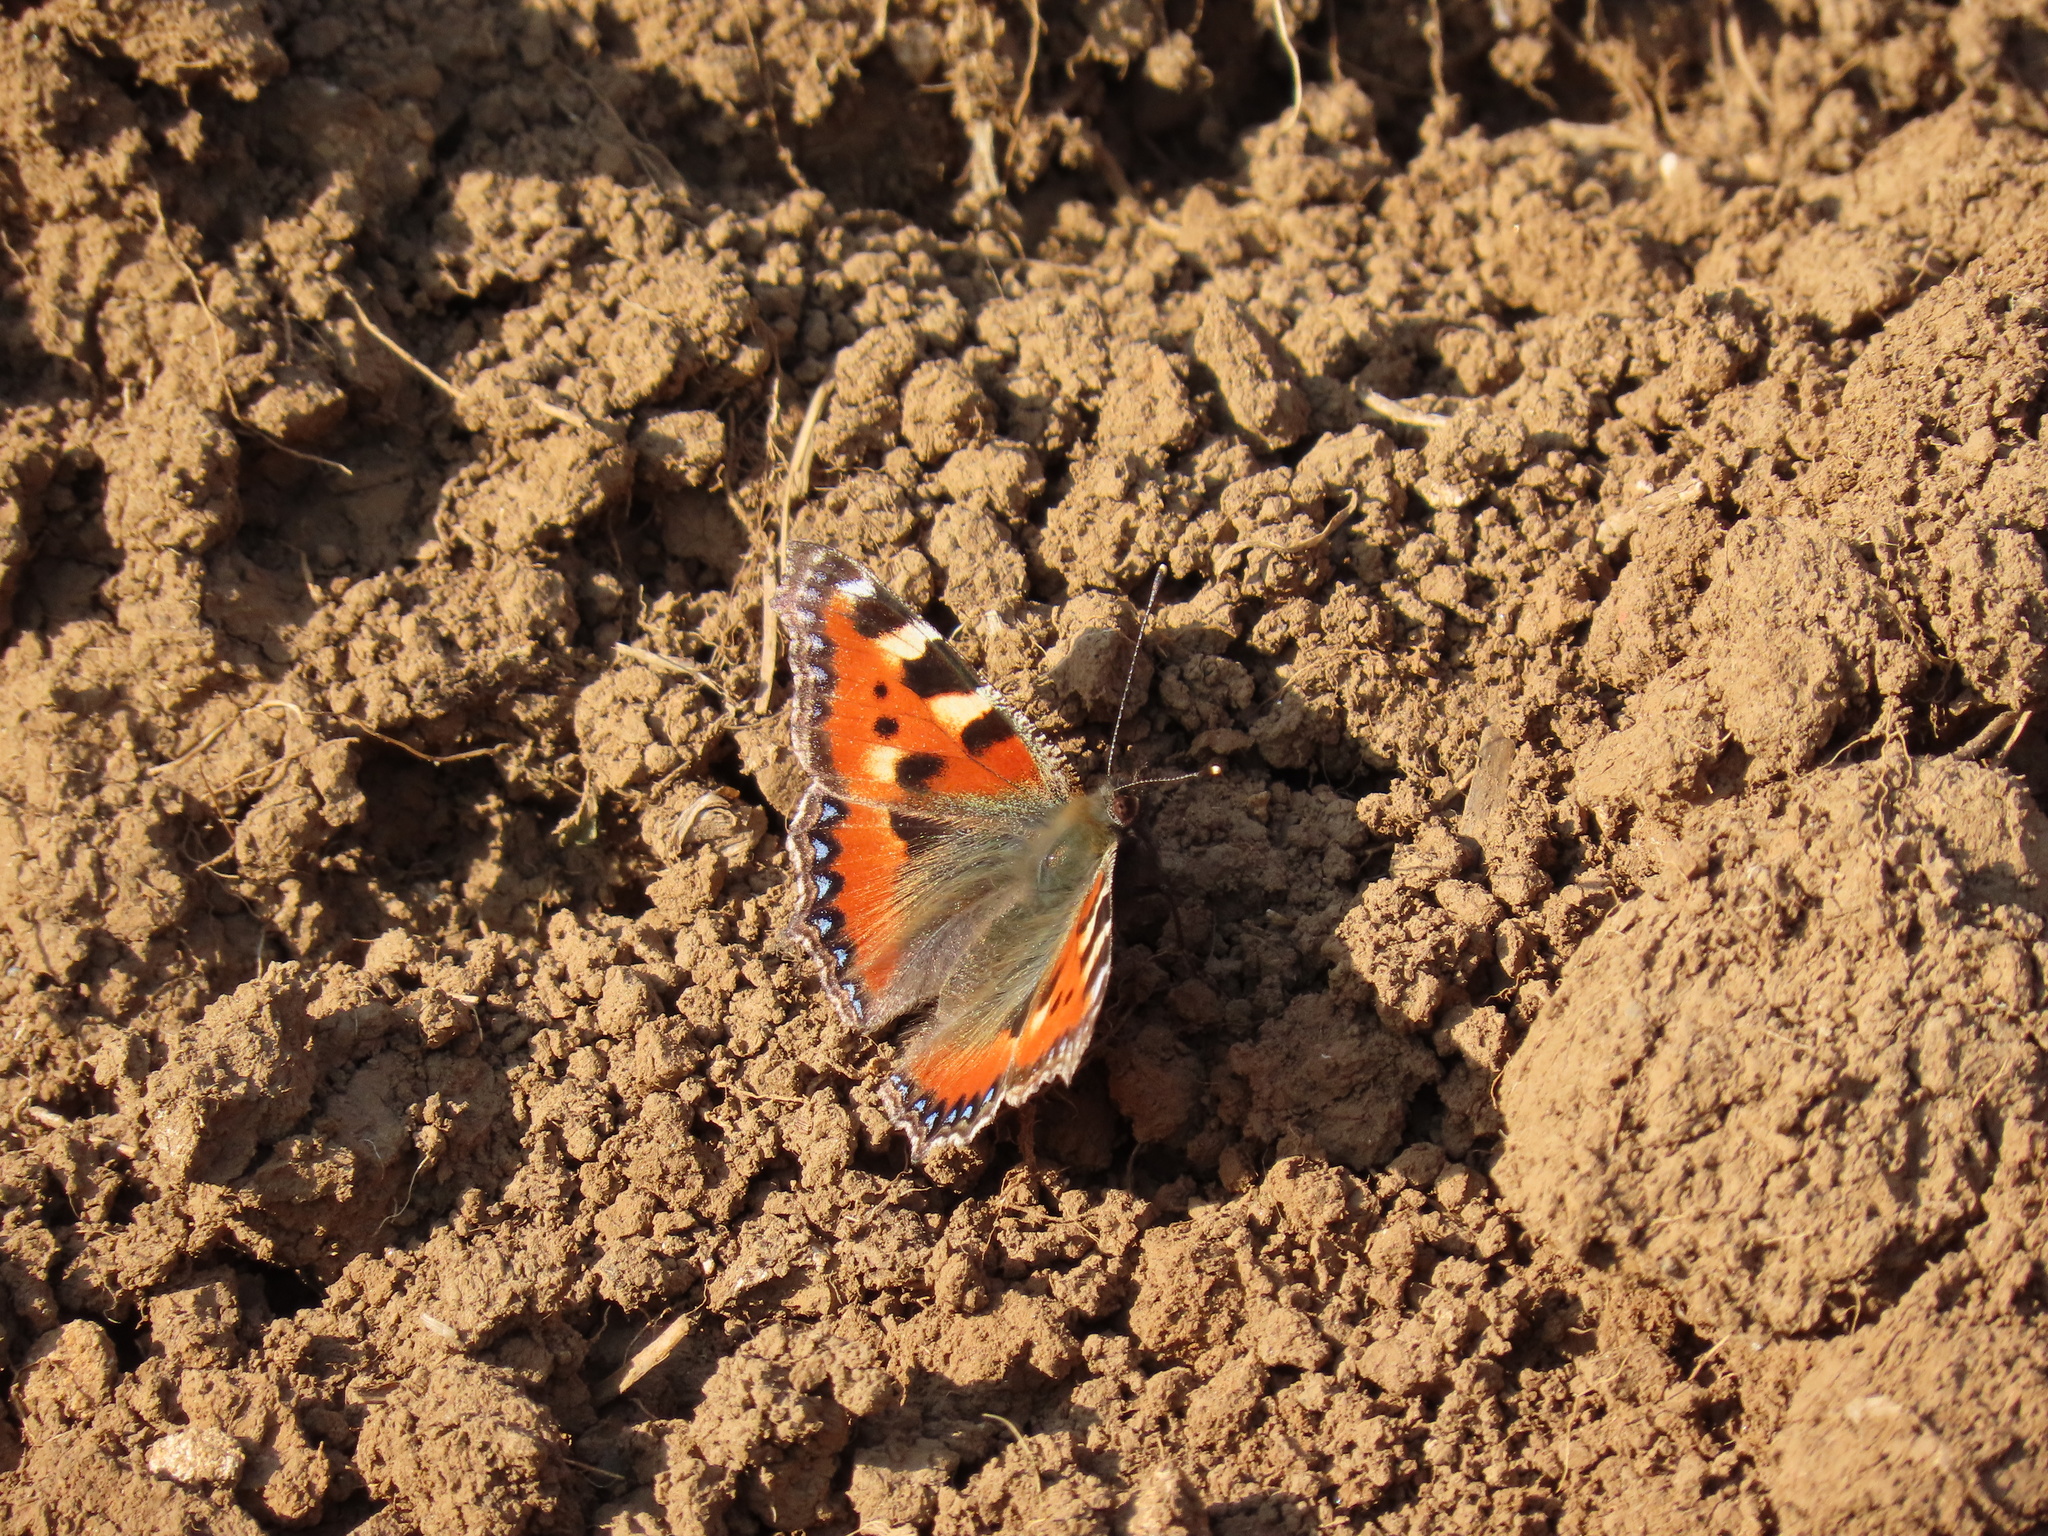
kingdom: Animalia
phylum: Arthropoda
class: Insecta
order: Lepidoptera
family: Nymphalidae
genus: Aglais
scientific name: Aglais urticae
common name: Small tortoiseshell
